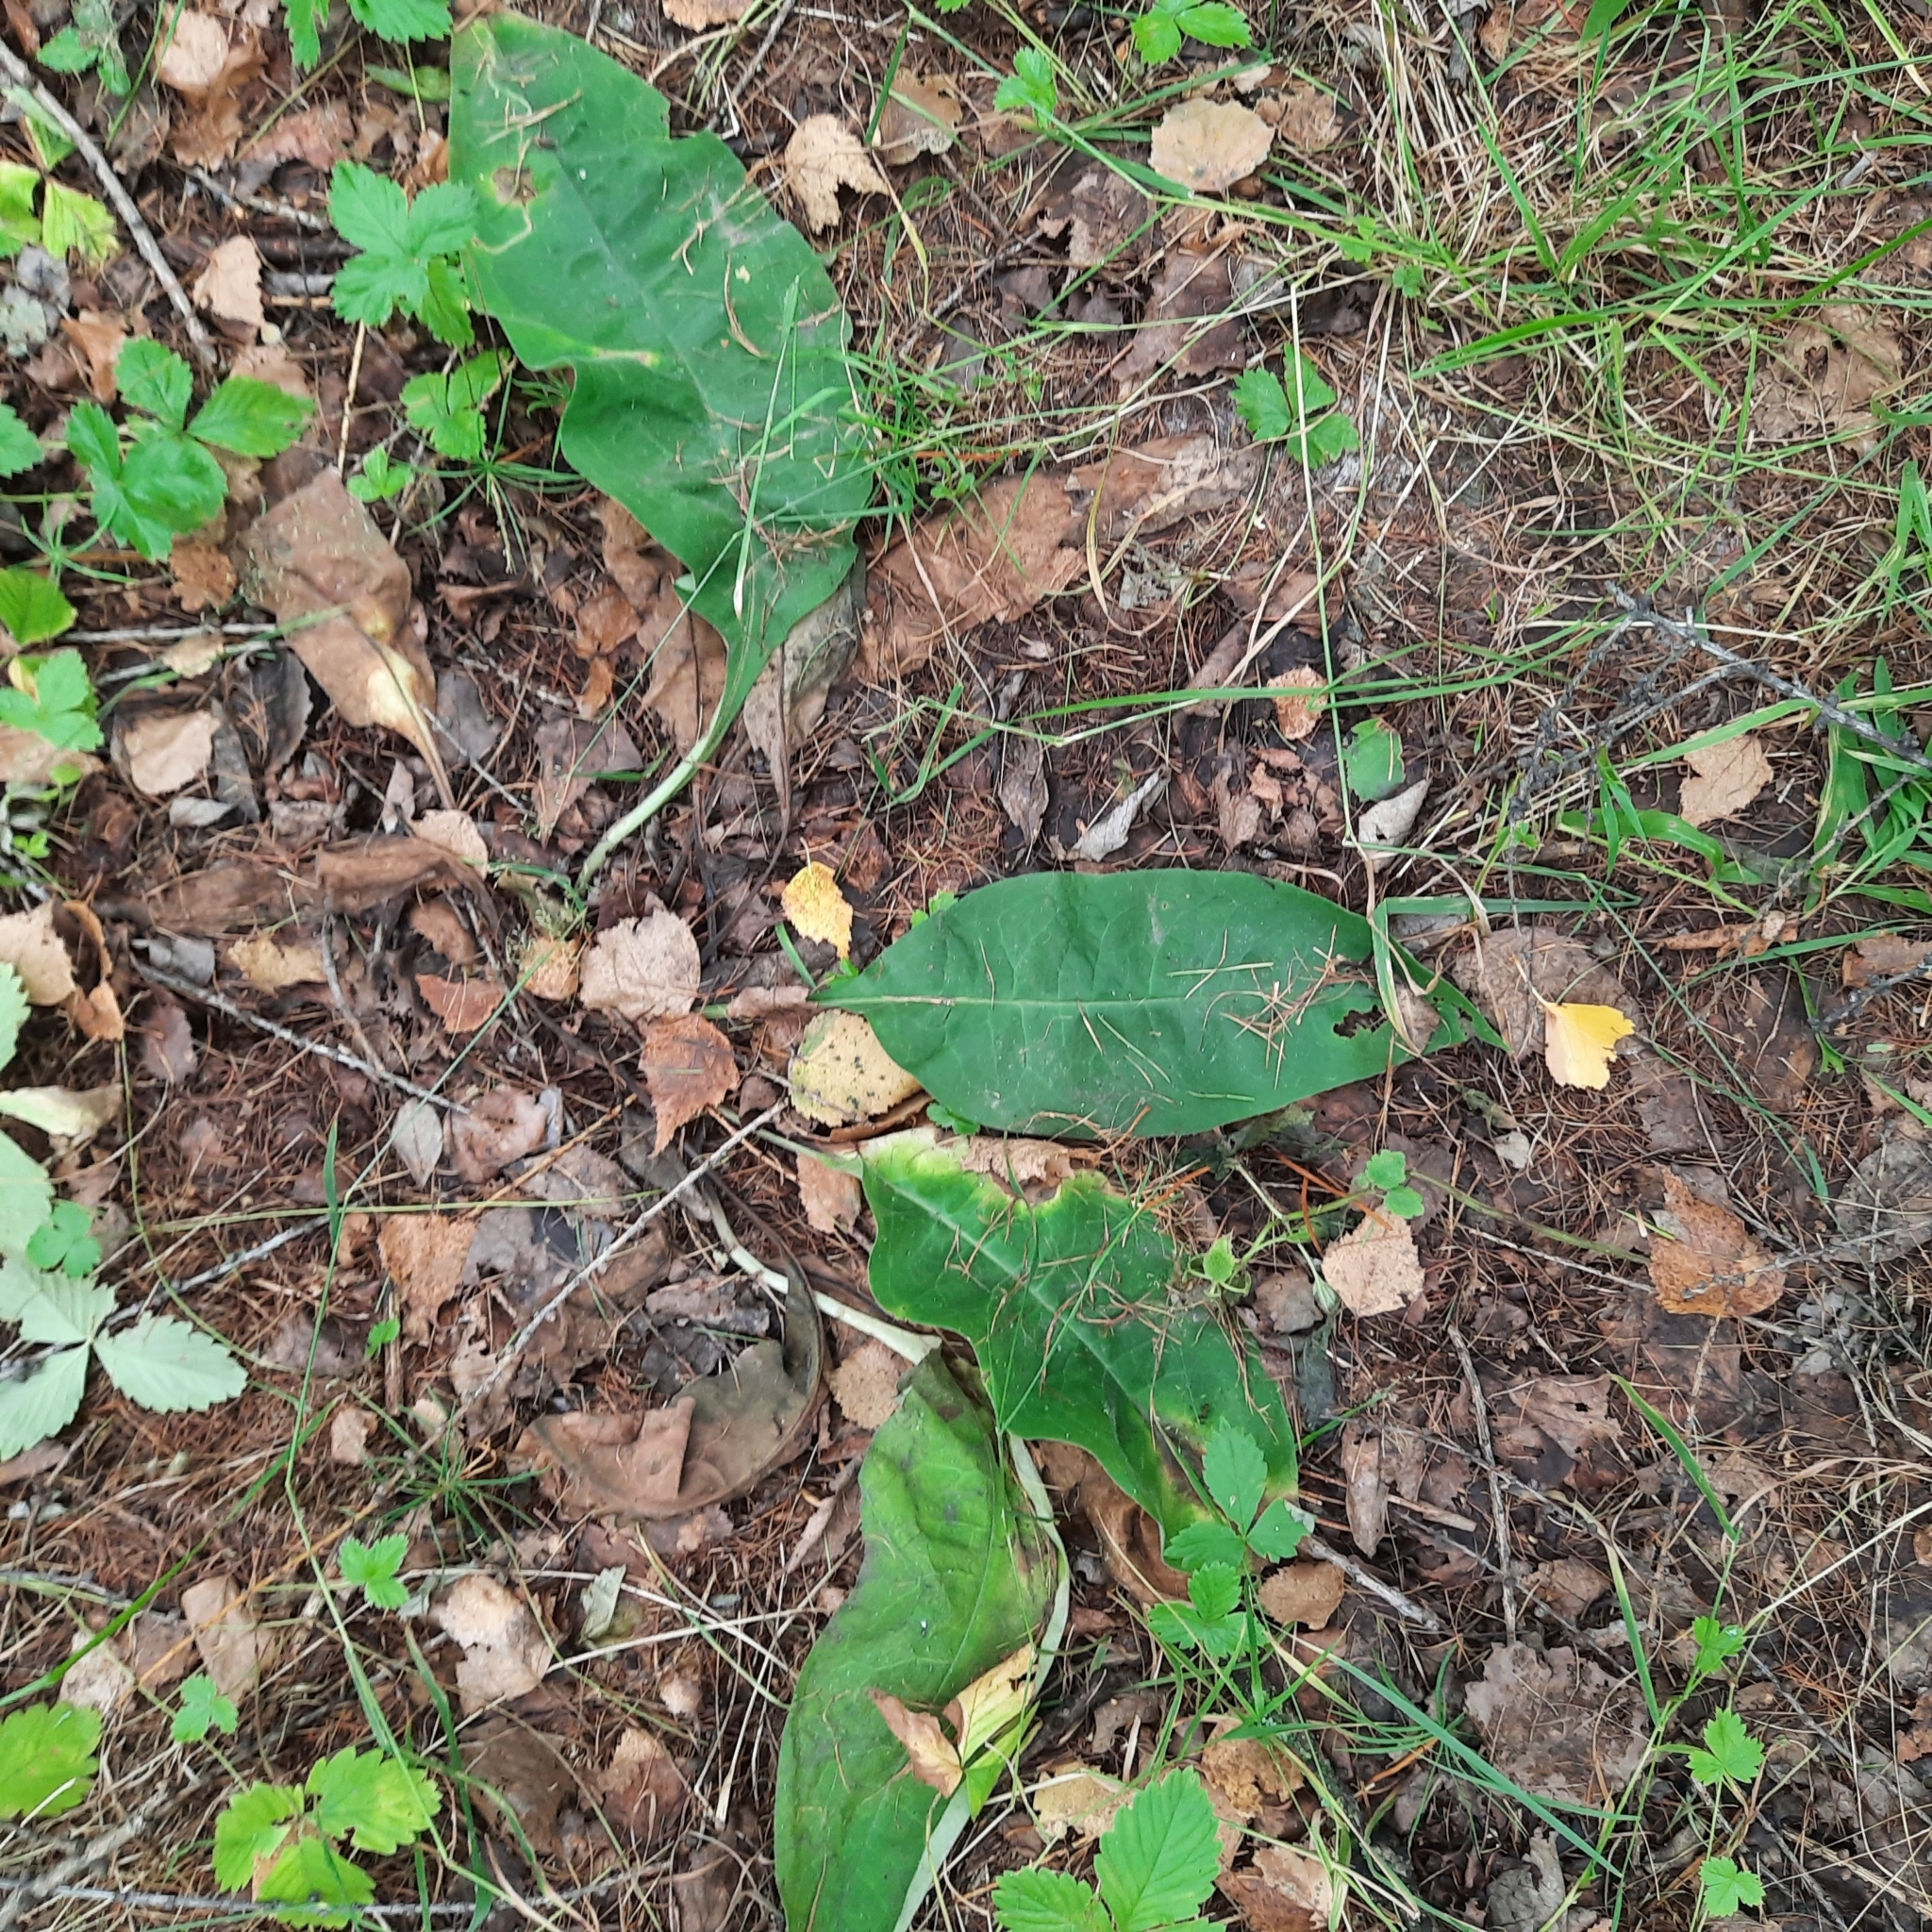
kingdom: Plantae
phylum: Tracheophyta
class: Magnoliopsida
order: Boraginales
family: Boraginaceae
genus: Pulmonaria
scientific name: Pulmonaria mollis
